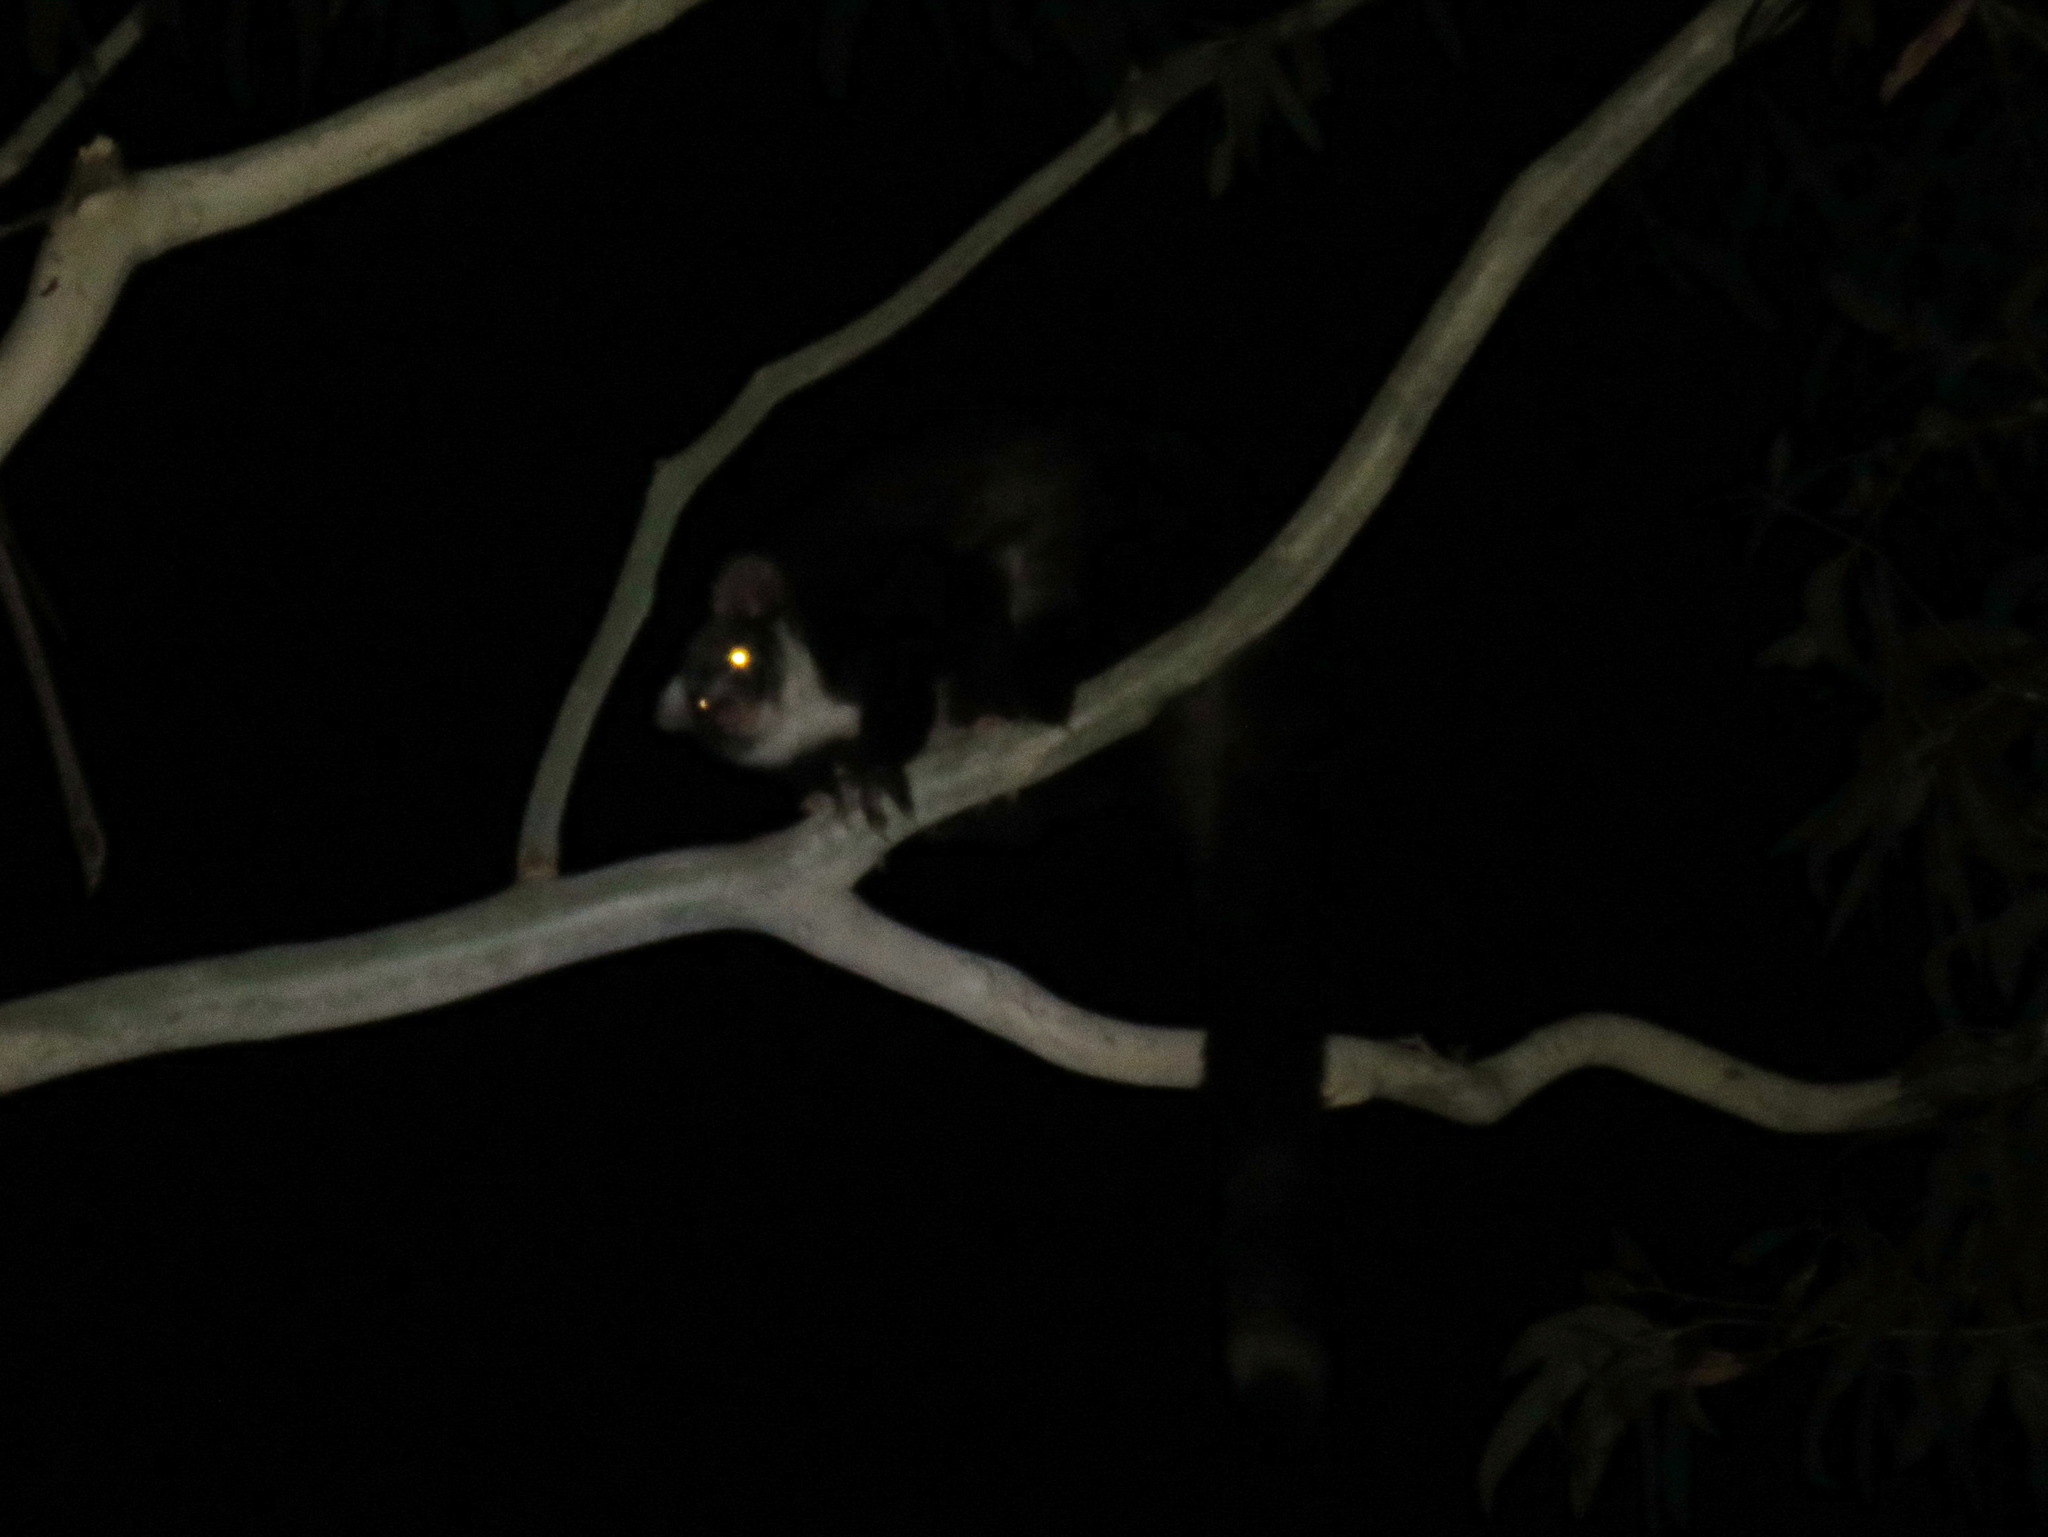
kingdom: Animalia
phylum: Chordata
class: Mammalia
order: Diprotodontia
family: Pseudocheiridae
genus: Petauroides
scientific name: Petauroides volans
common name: Greater glider
